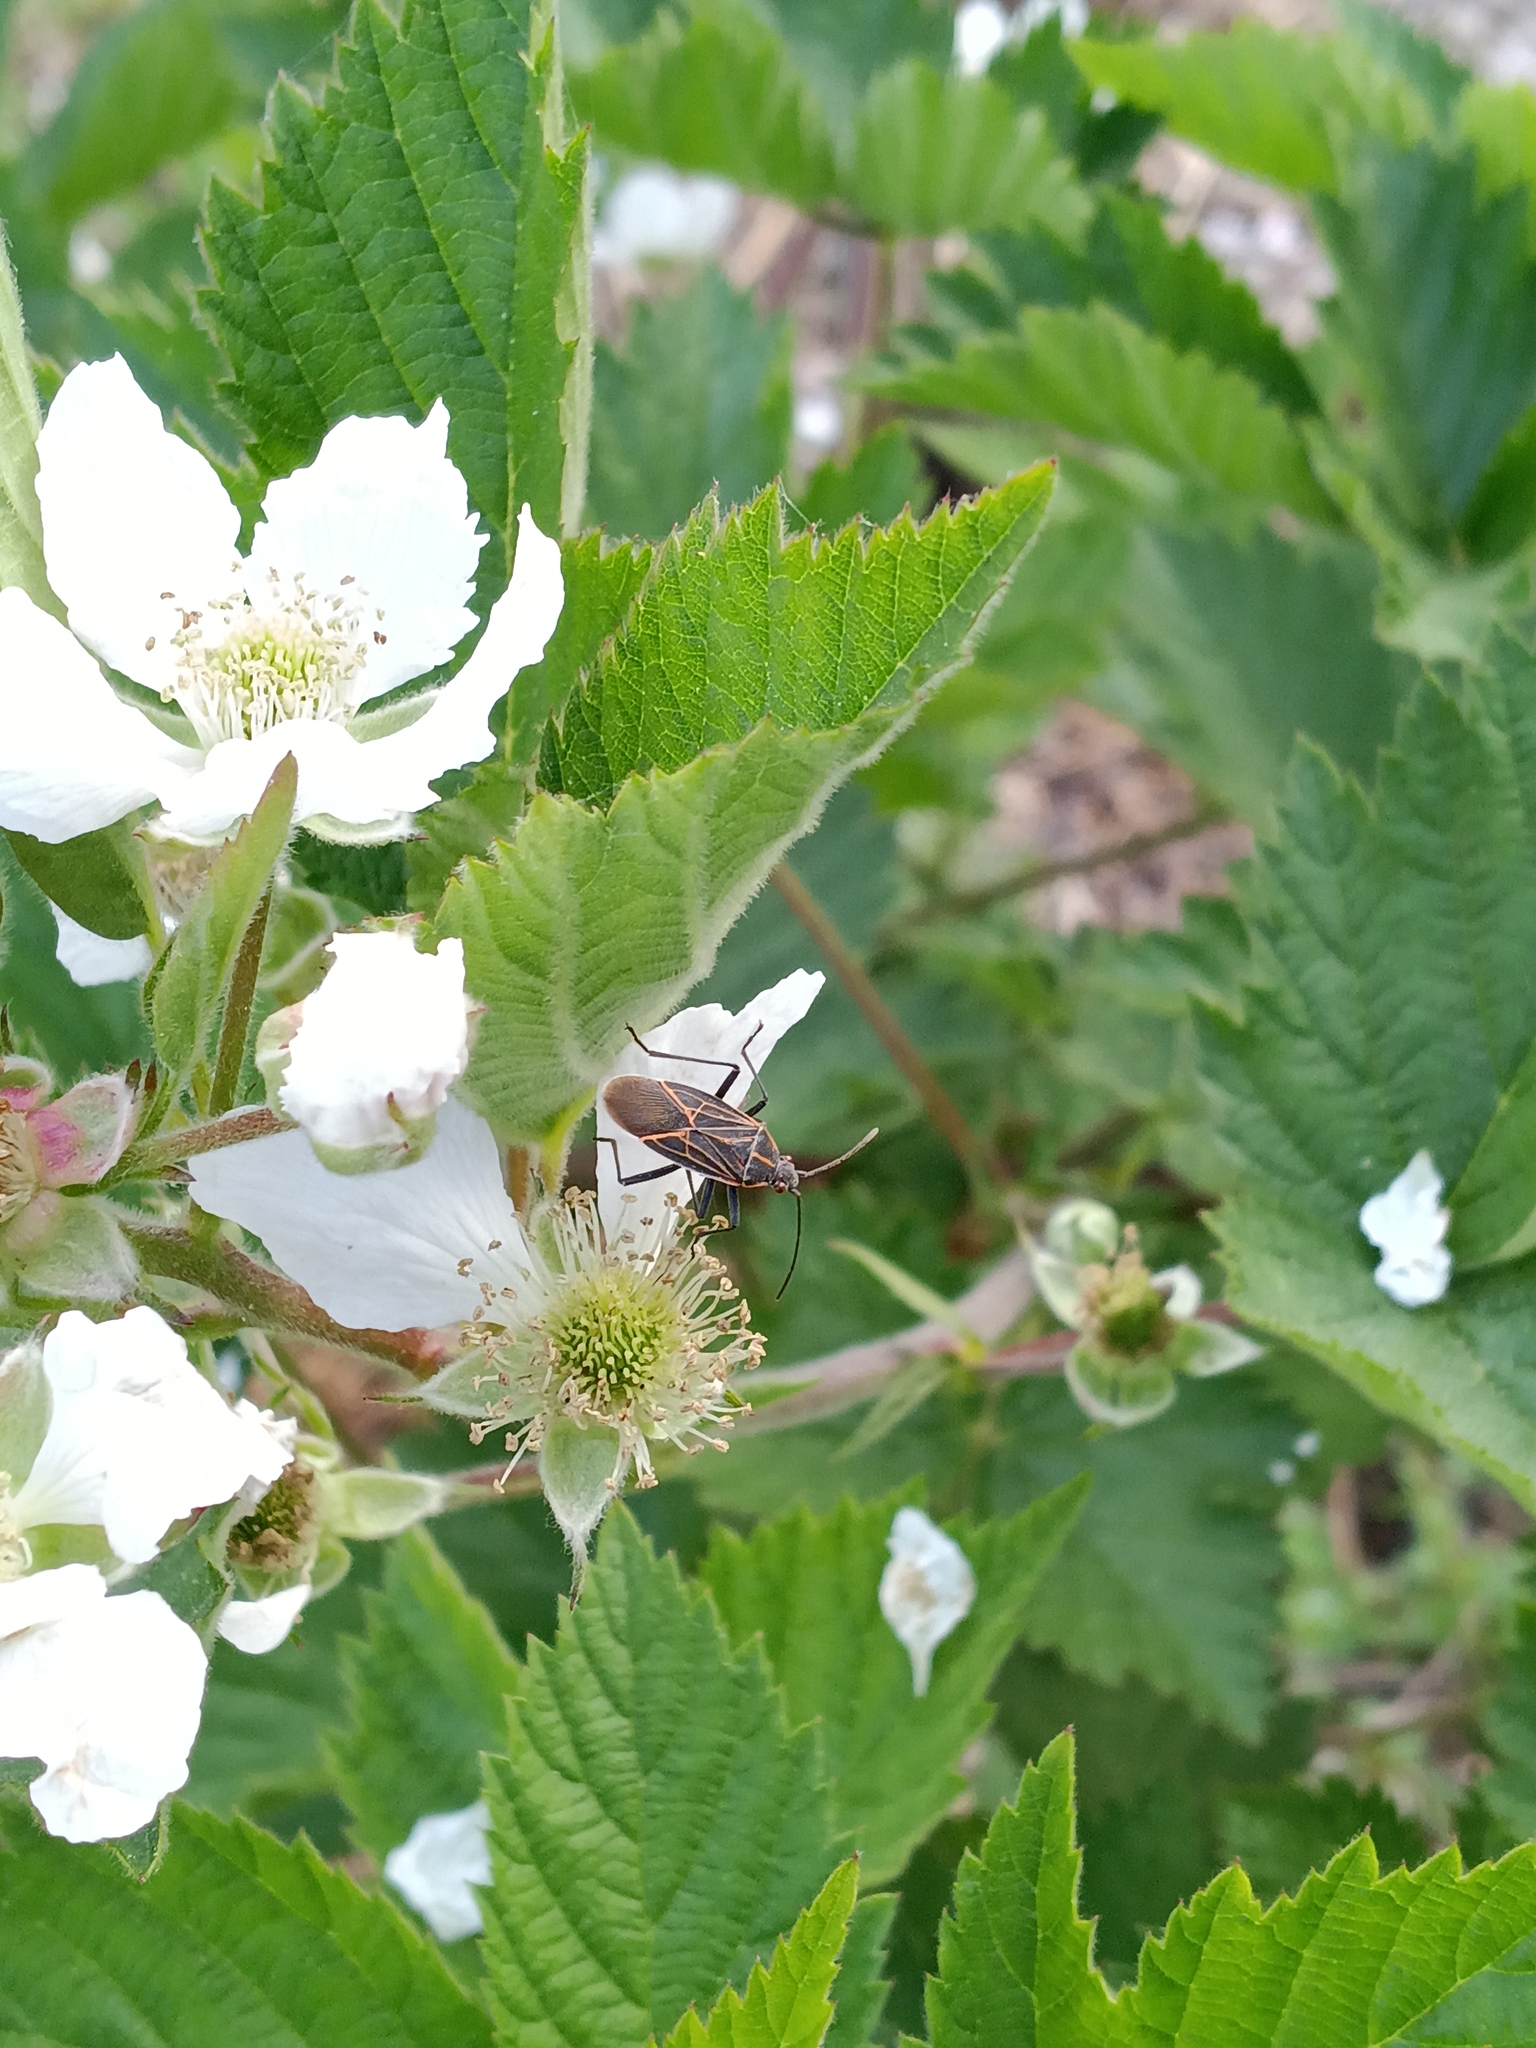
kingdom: Animalia
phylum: Arthropoda
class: Insecta
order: Hemiptera
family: Rhopalidae
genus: Boisea
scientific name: Boisea rubrolineata
